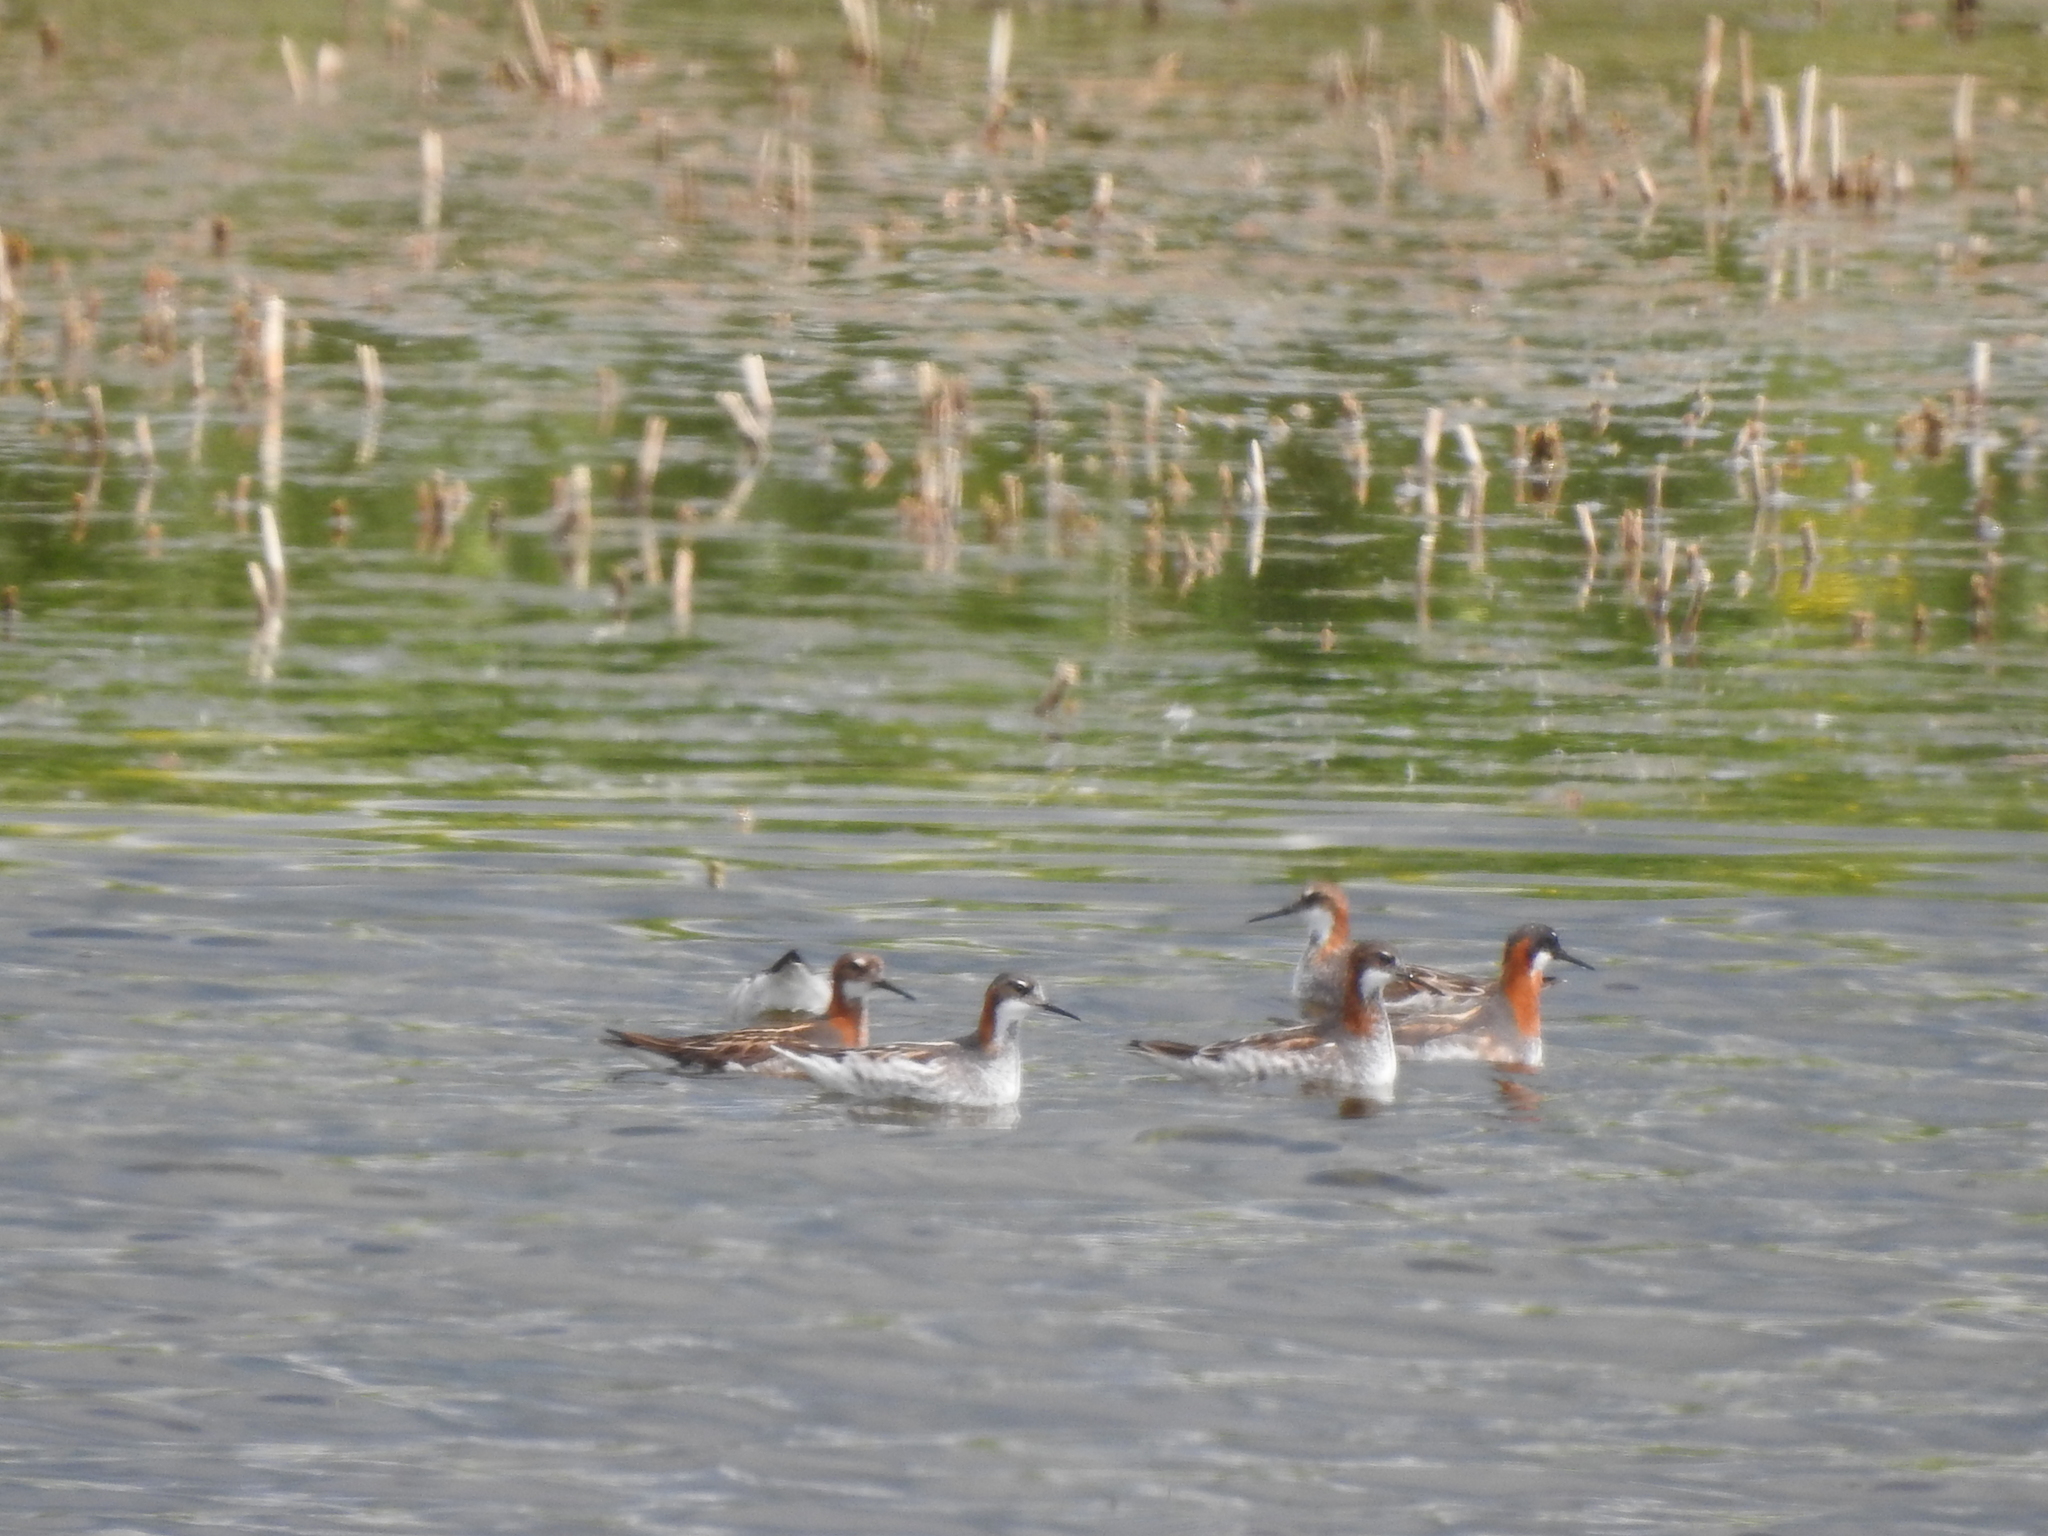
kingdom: Animalia
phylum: Chordata
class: Aves
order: Charadriiformes
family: Scolopacidae
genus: Phalaropus
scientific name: Phalaropus lobatus
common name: Red-necked phalarope
